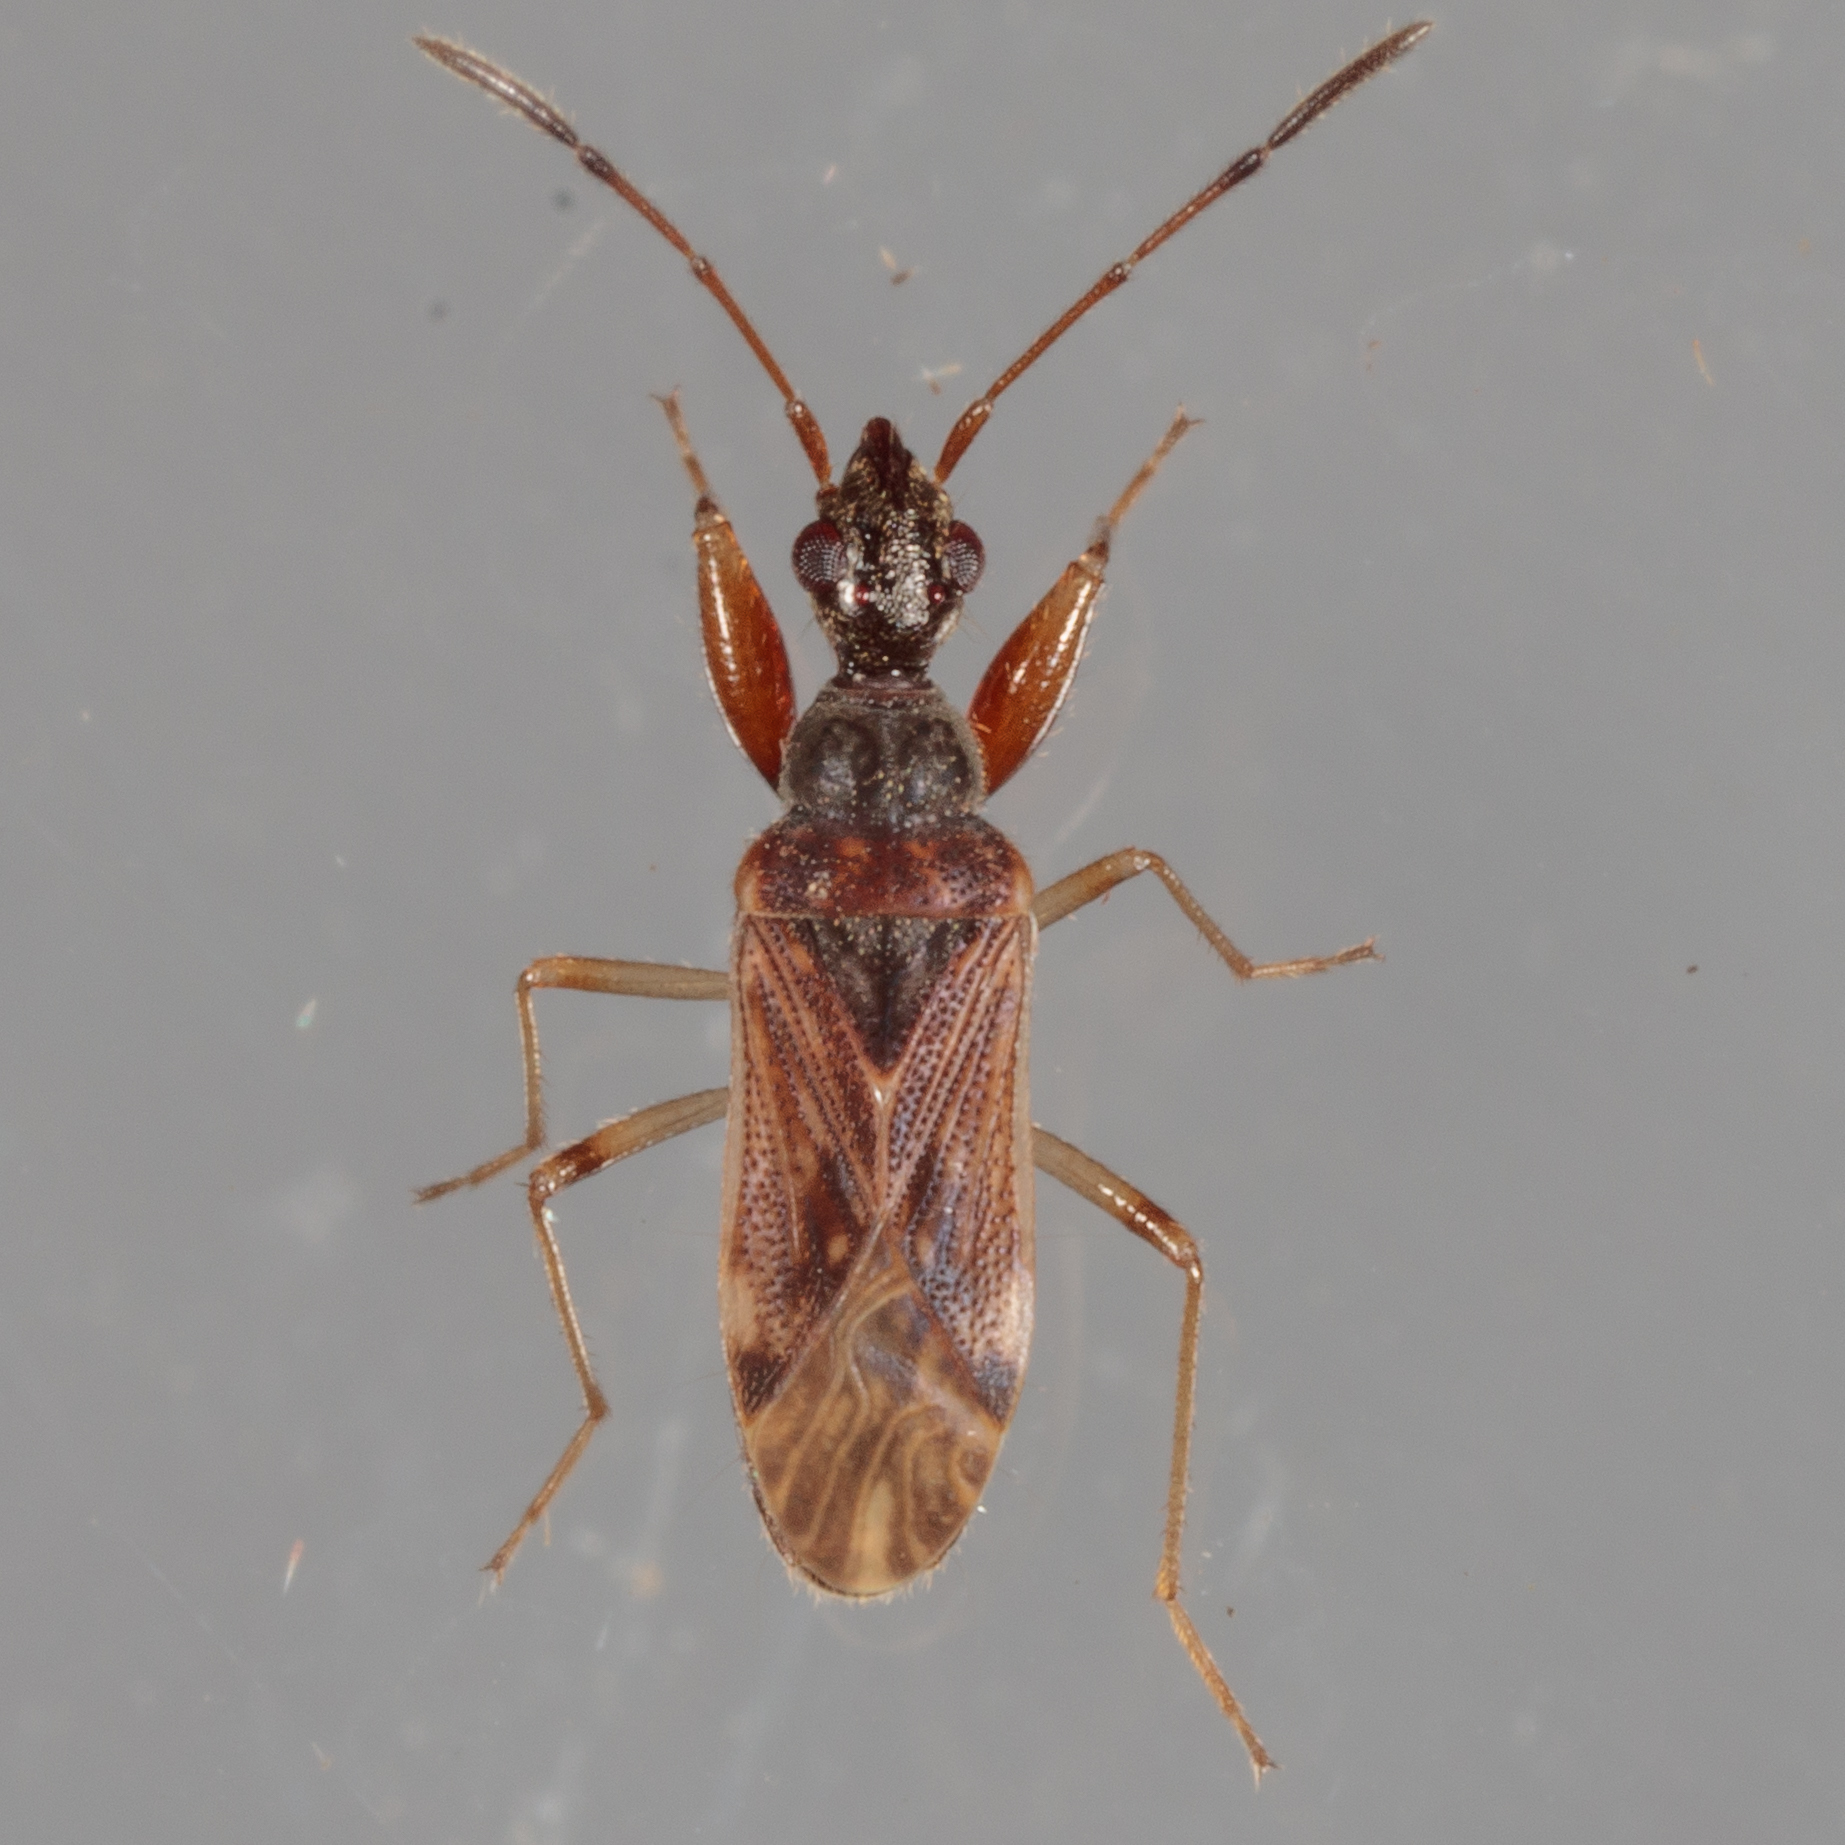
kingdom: Animalia
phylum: Arthropoda
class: Insecta
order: Hemiptera
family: Rhyparochromidae
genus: Heraeus
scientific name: Heraeus plebejus
